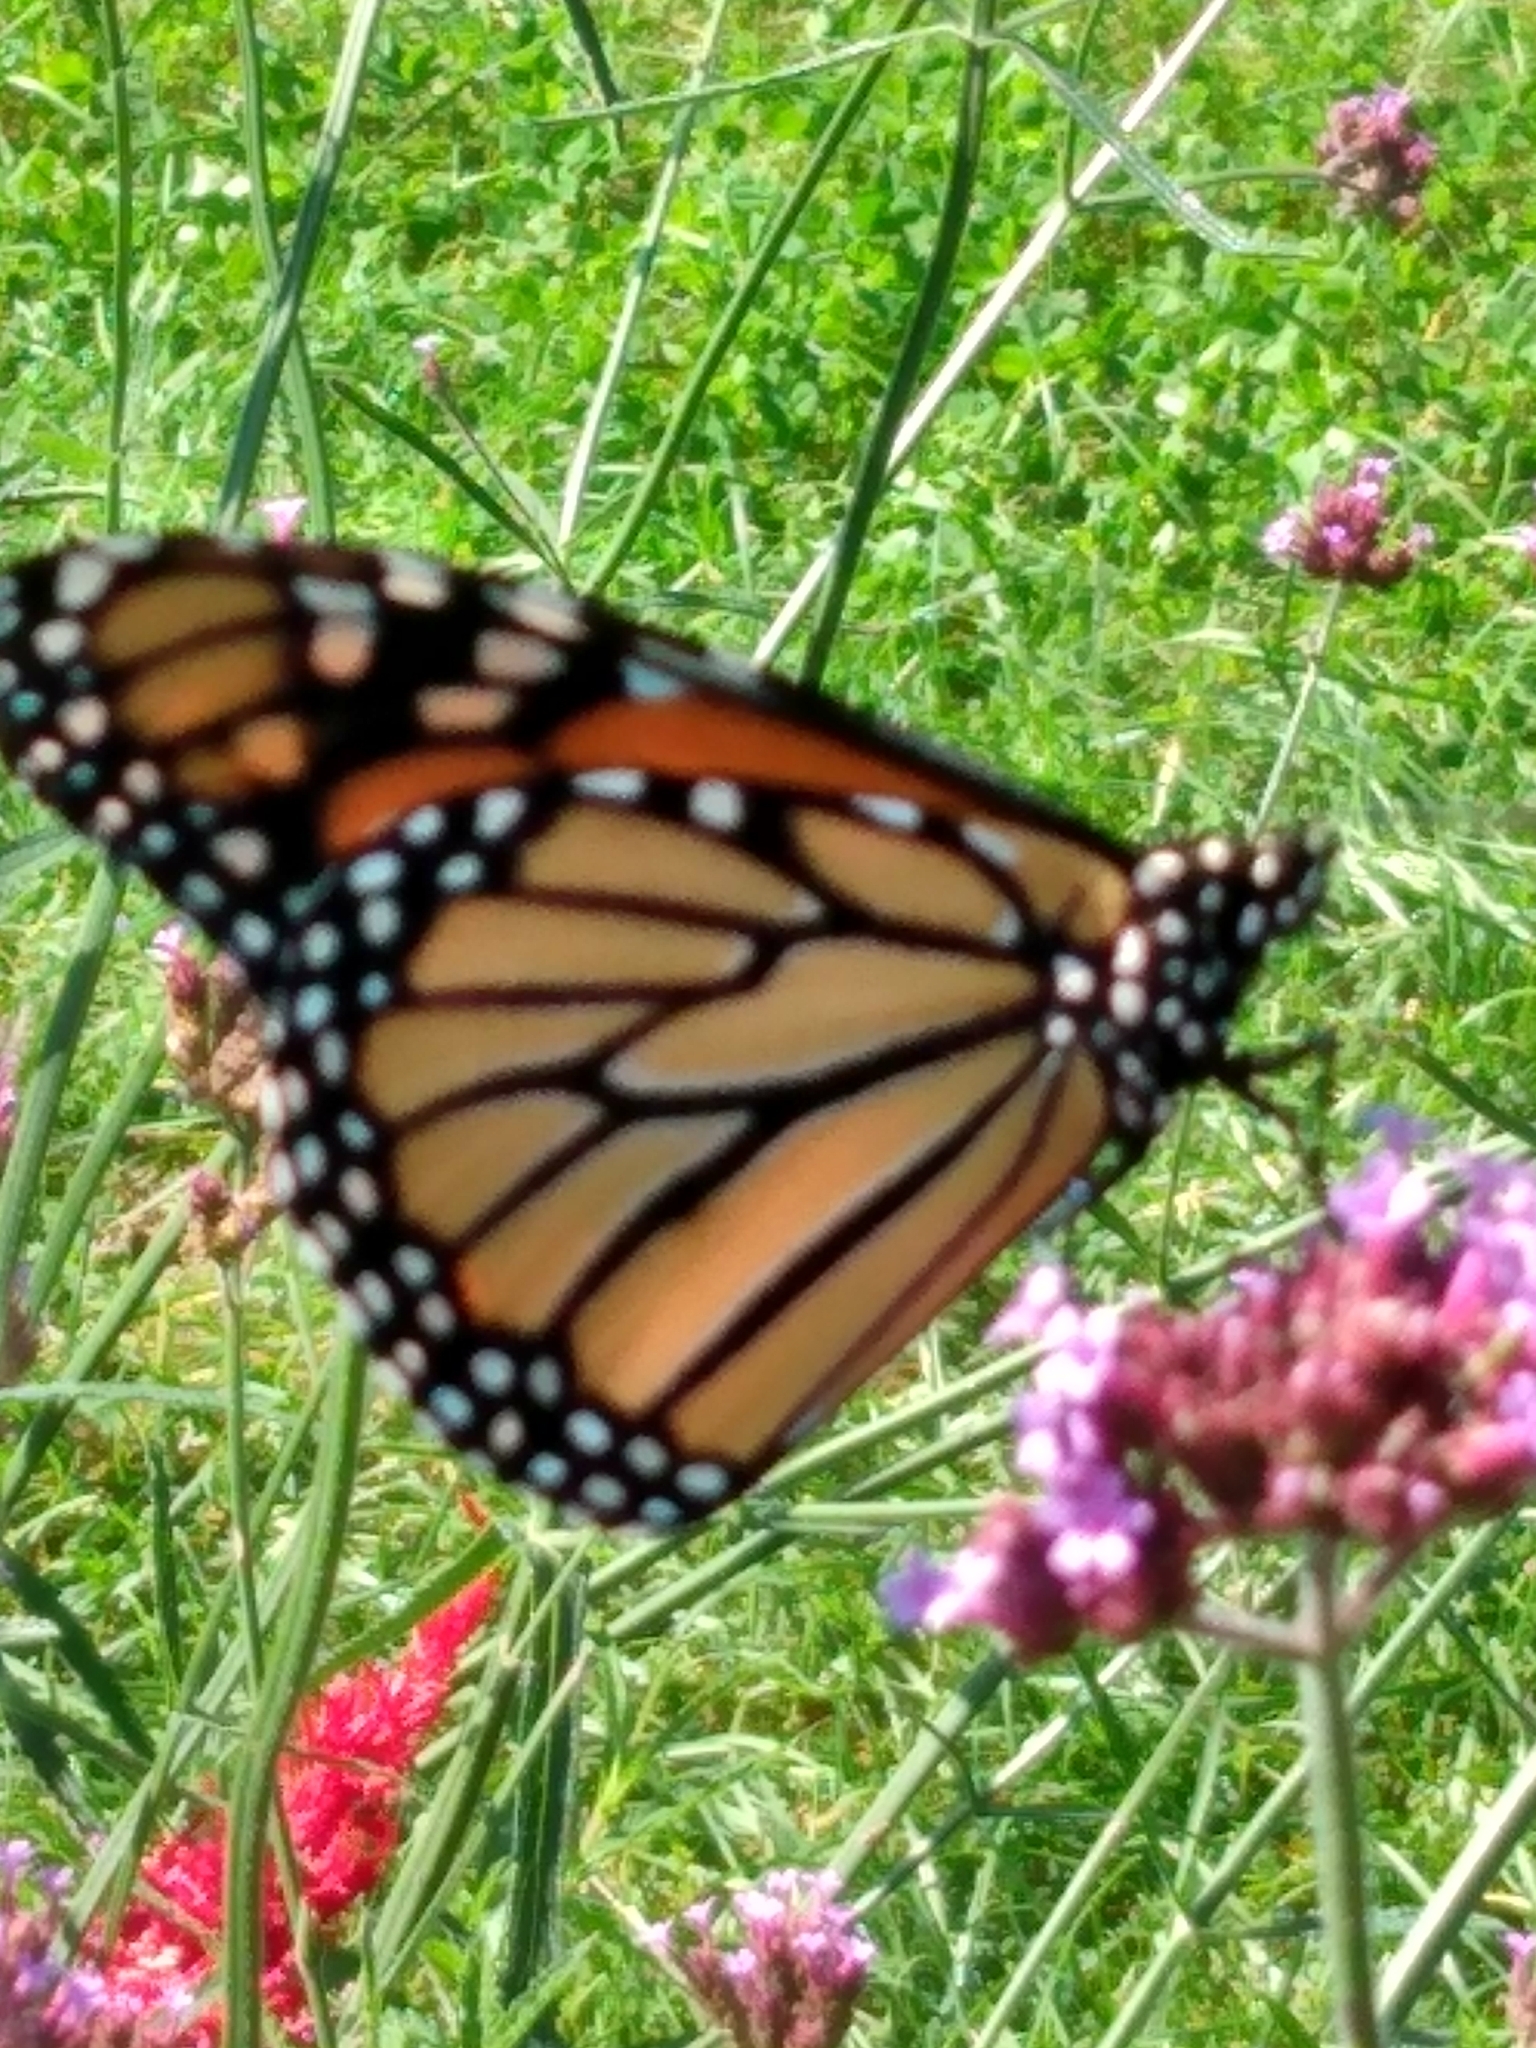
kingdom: Animalia
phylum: Arthropoda
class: Insecta
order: Lepidoptera
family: Nymphalidae
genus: Danaus
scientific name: Danaus plexippus
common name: Monarch
